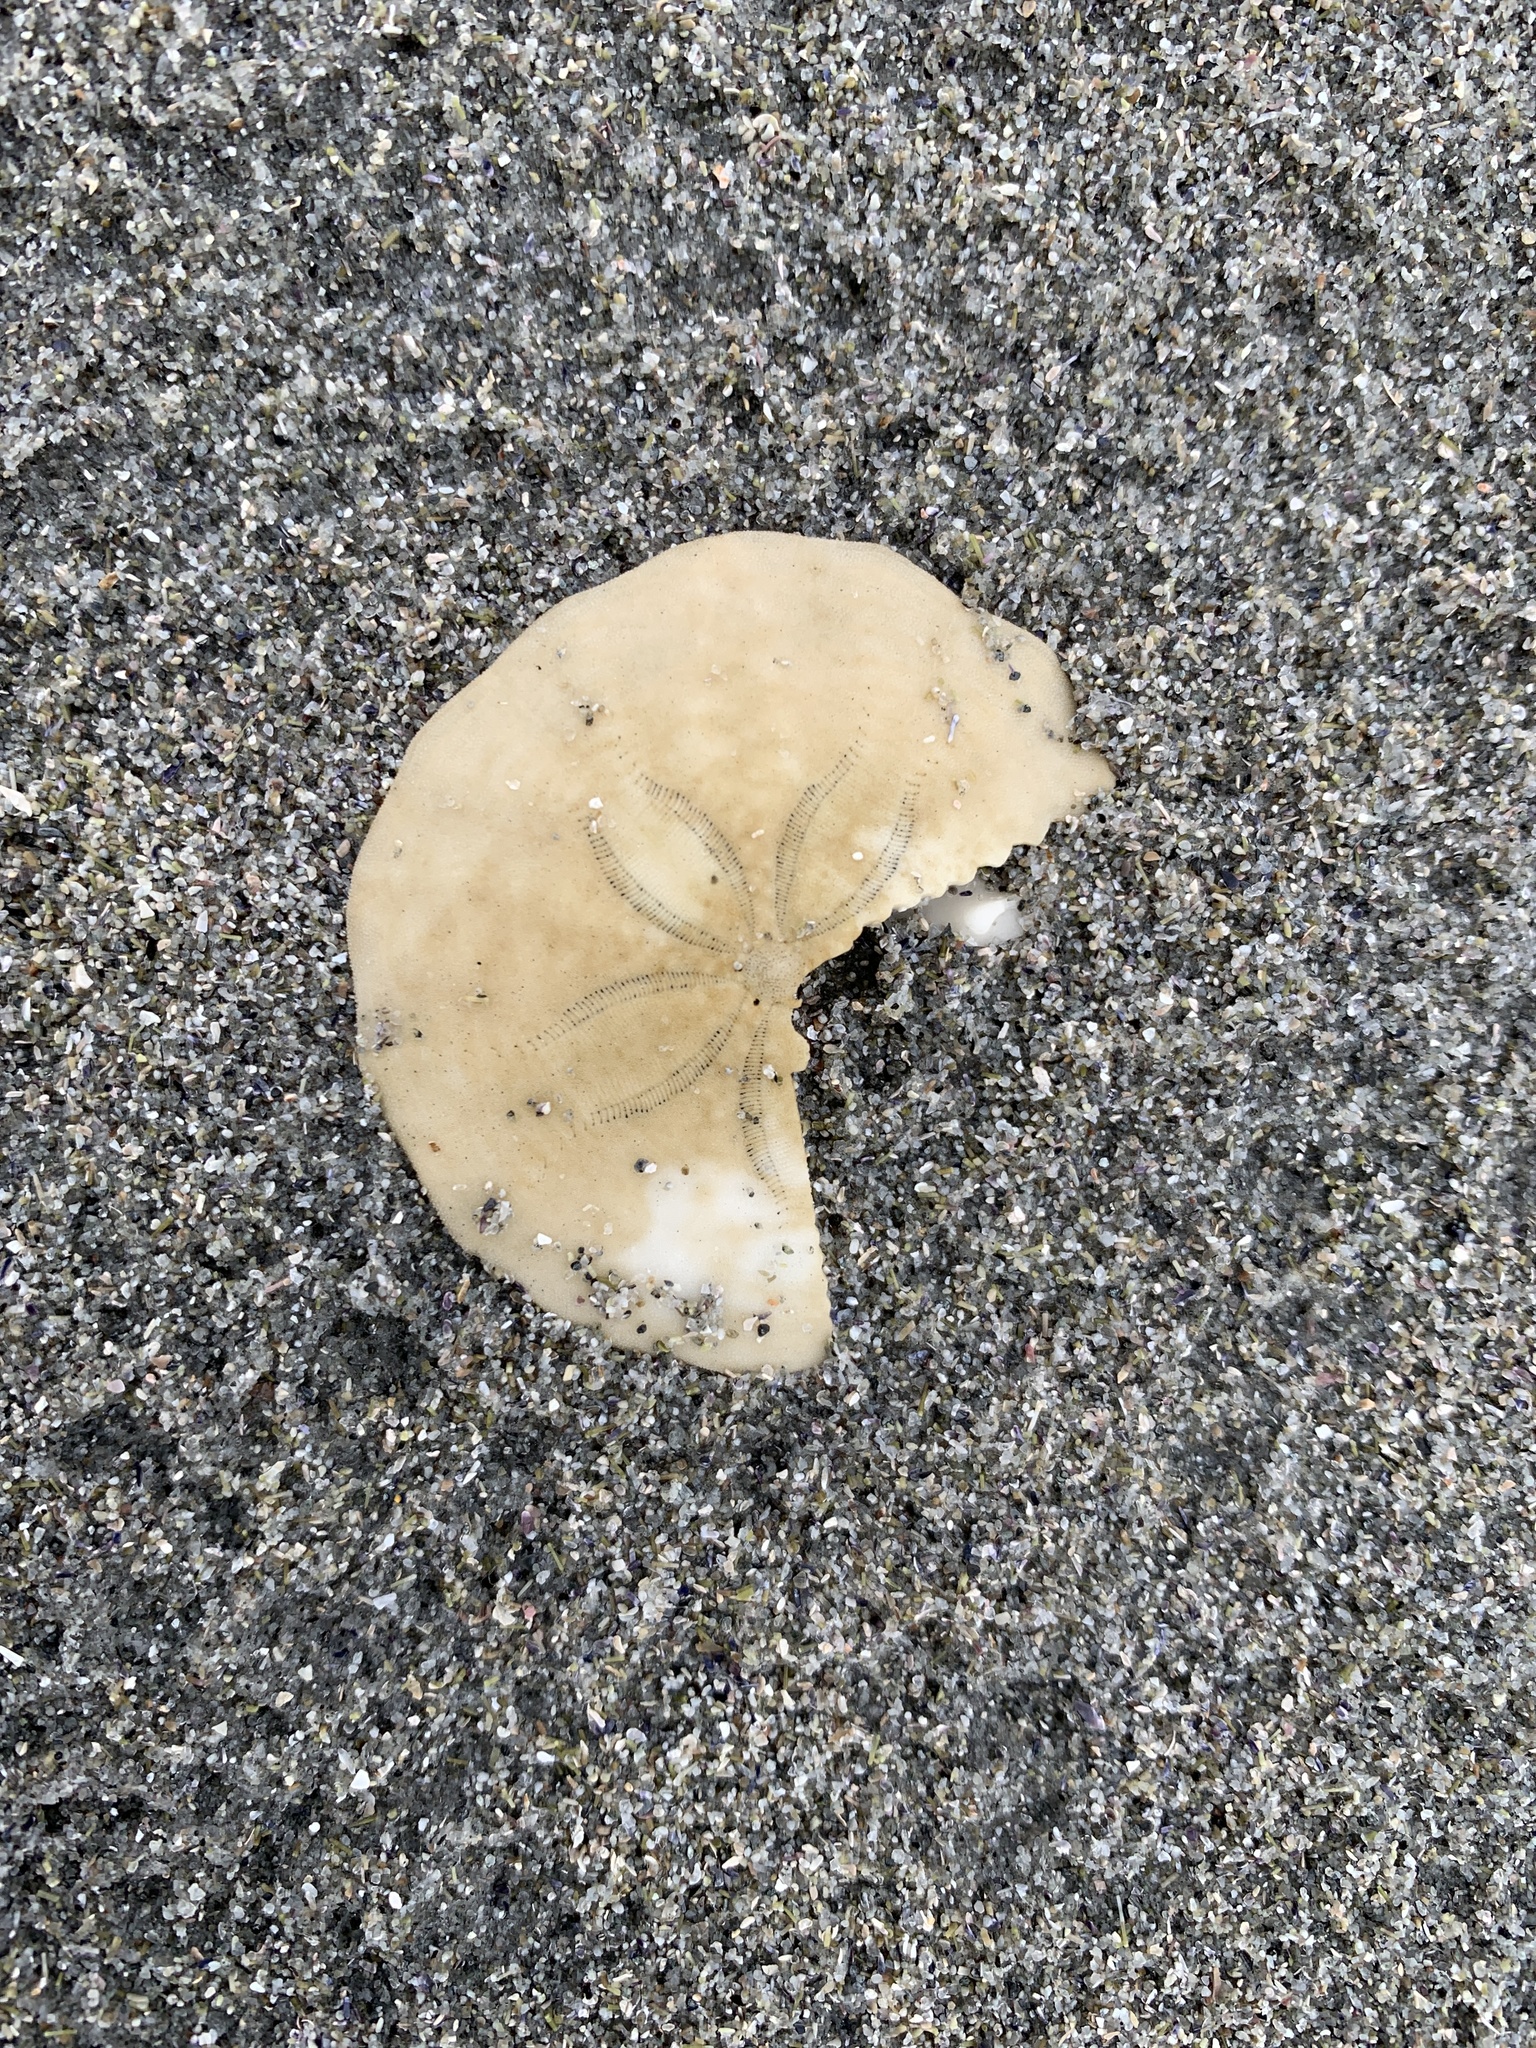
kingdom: Animalia
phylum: Echinodermata
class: Echinoidea
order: Echinolampadacea
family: Echinarachniidae
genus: Echinarachnius
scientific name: Echinarachnius parma
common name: Common sand dollar
